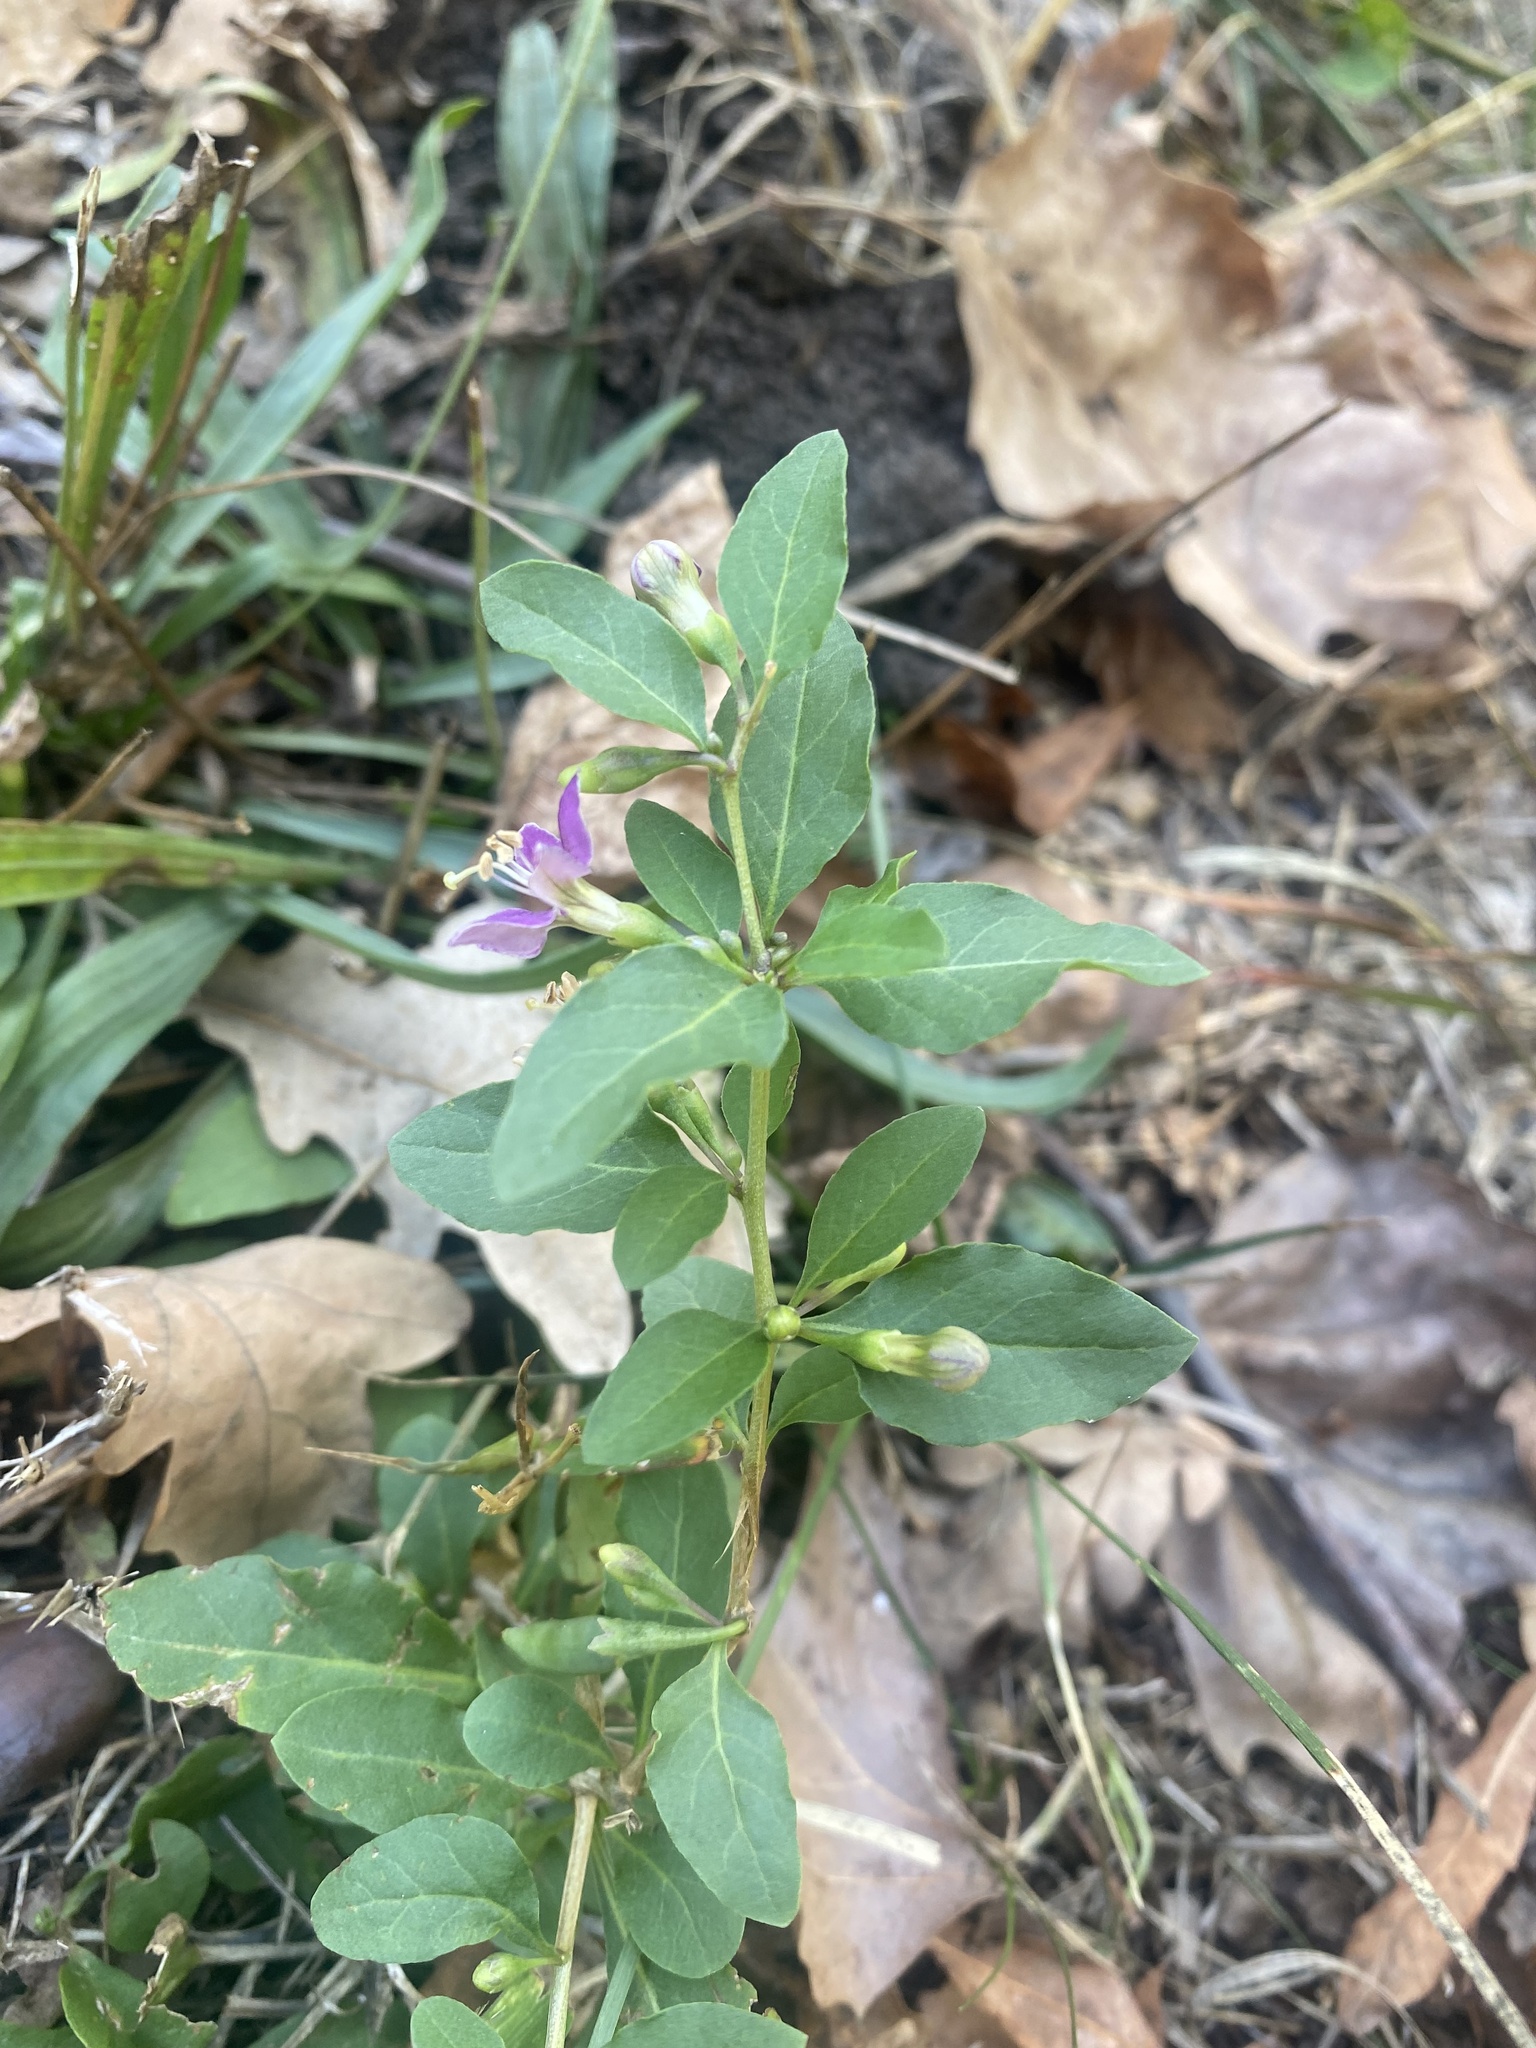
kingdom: Plantae
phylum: Tracheophyta
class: Magnoliopsida
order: Solanales
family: Solanaceae
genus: Lycium
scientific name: Lycium barbarum
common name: Duke of argyll's teaplant
